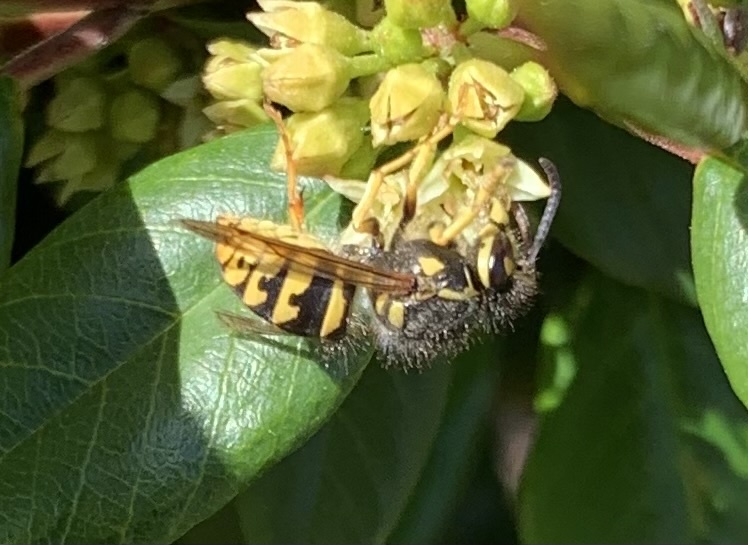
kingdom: Animalia
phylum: Arthropoda
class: Insecta
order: Hymenoptera
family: Vespidae
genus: Dolichovespula
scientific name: Dolichovespula arenaria
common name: Aerial yellowjacket
